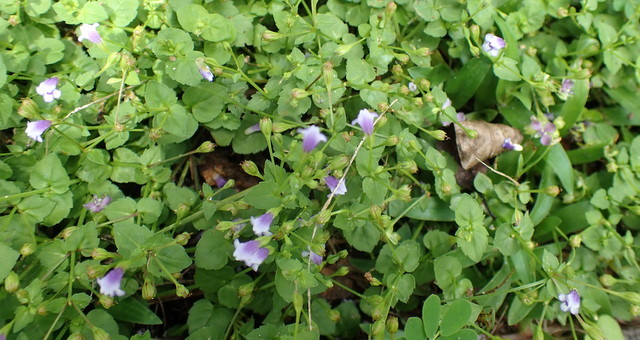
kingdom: Plantae
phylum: Tracheophyta
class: Magnoliopsida
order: Lamiales
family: Linderniaceae
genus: Torenia
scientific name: Torenia crustacea
